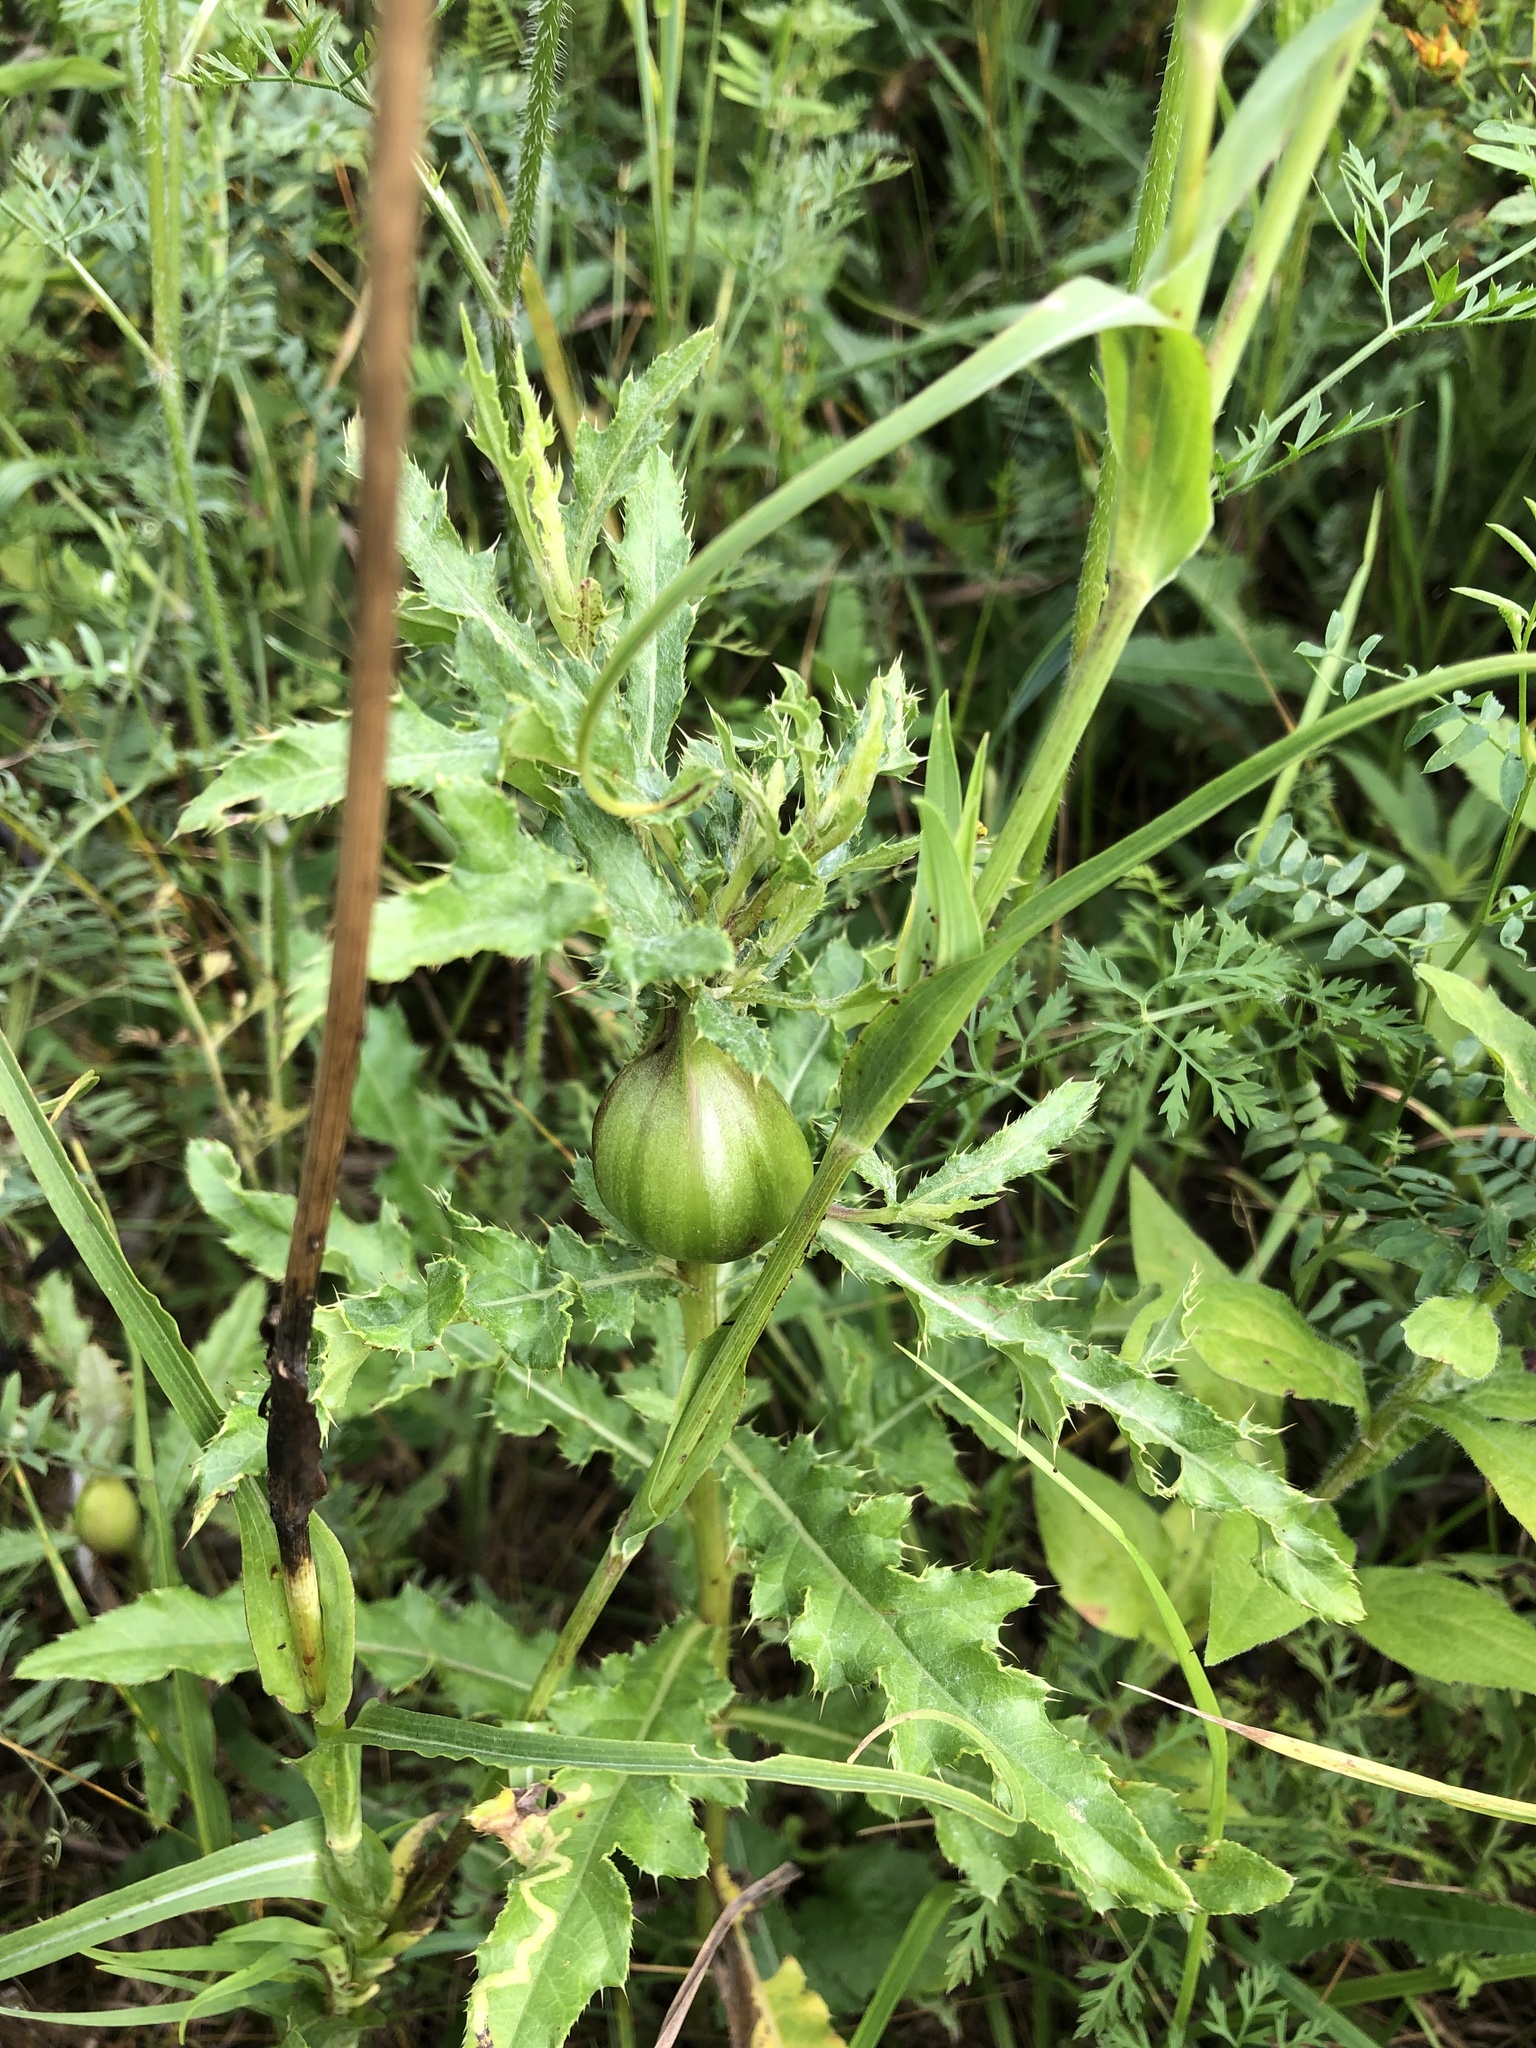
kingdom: Animalia
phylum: Arthropoda
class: Insecta
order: Diptera
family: Tephritidae
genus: Urophora
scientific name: Urophora cardui
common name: Fruit fly
